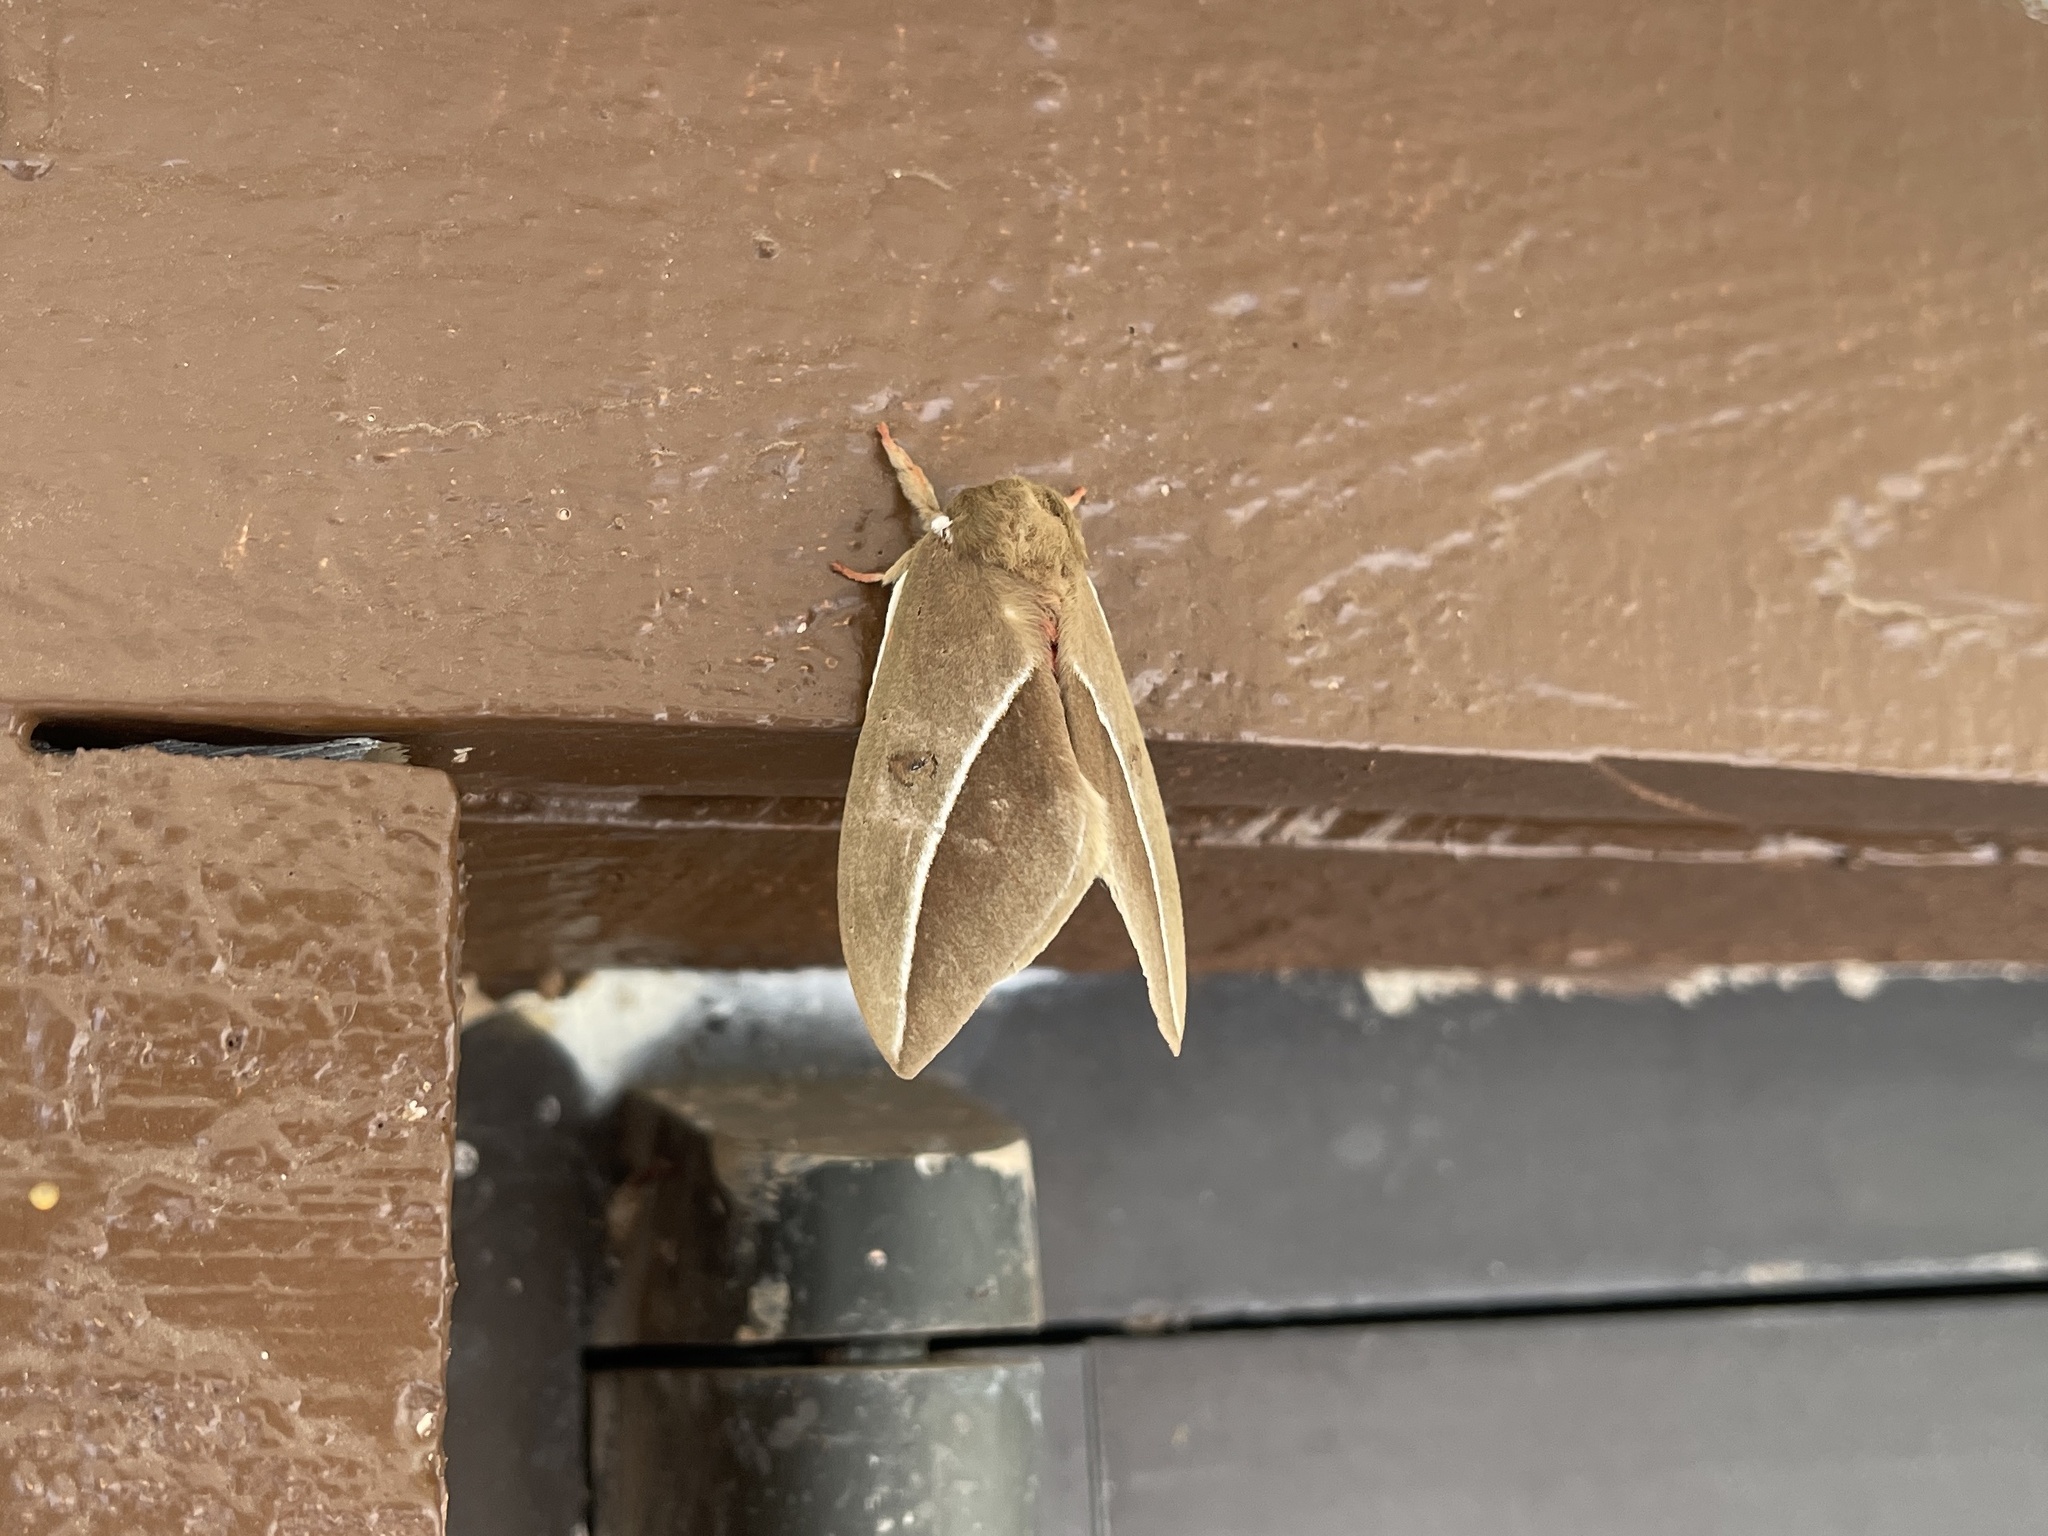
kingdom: Animalia
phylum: Arthropoda
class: Insecta
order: Lepidoptera
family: Saturniidae
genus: Automeris
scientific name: Automeris zephyria
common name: Zephyr eyed silkmoth
